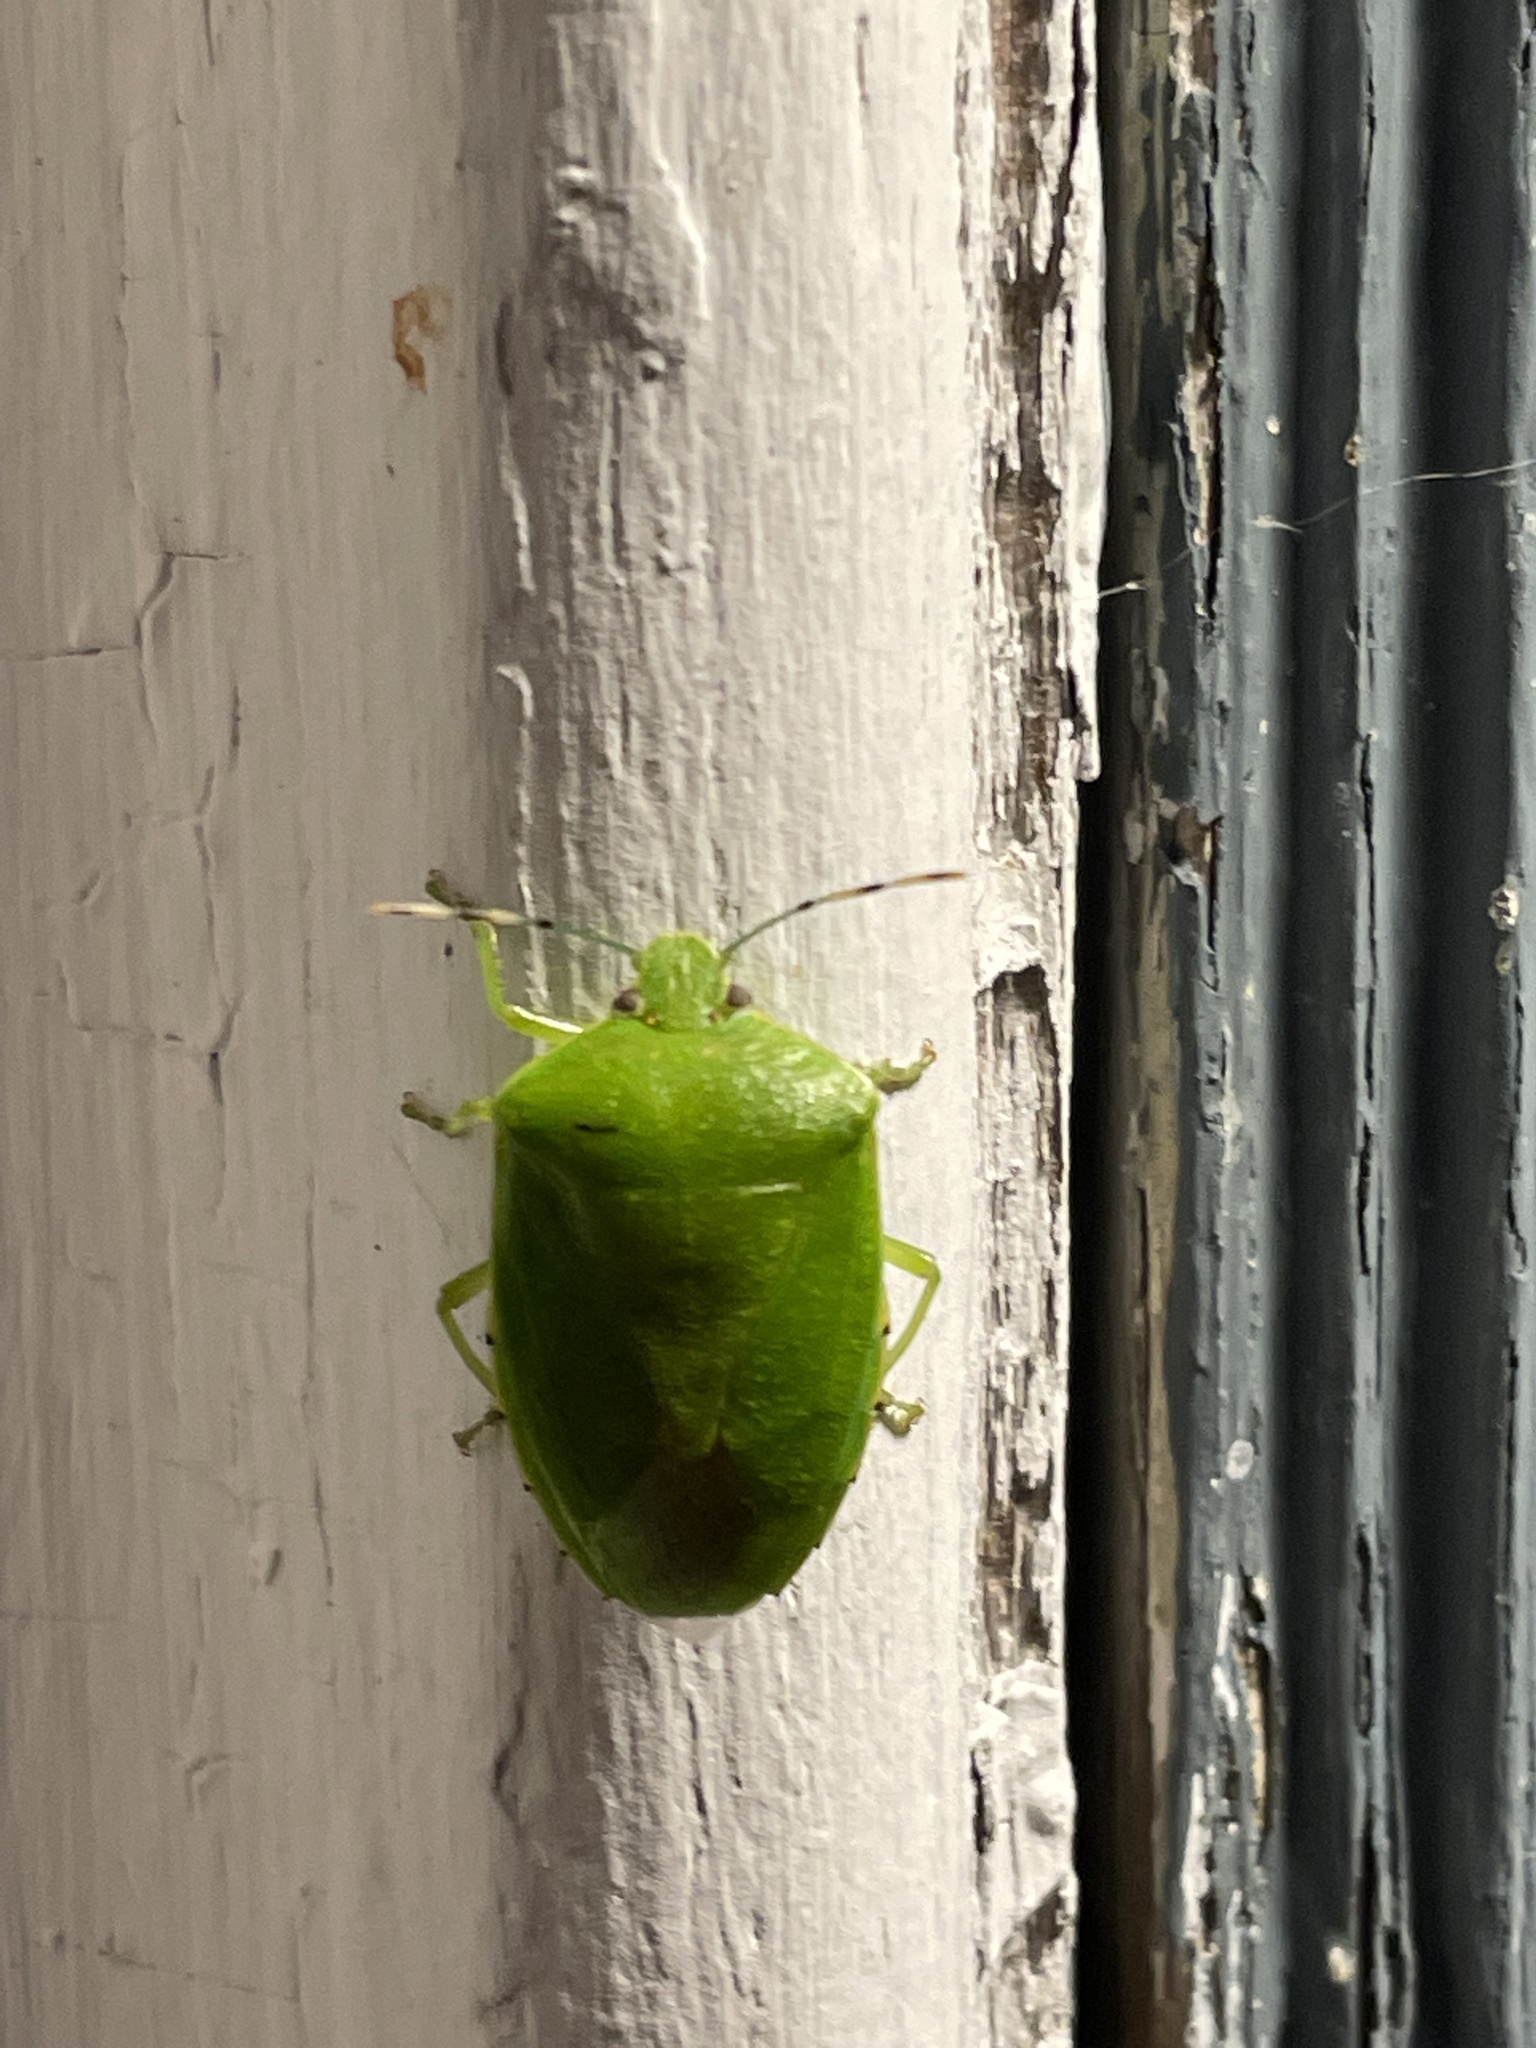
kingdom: Animalia
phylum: Arthropoda
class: Insecta
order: Hemiptera
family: Pentatomidae
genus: Chinavia
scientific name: Chinavia hilaris
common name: Green stink bug
